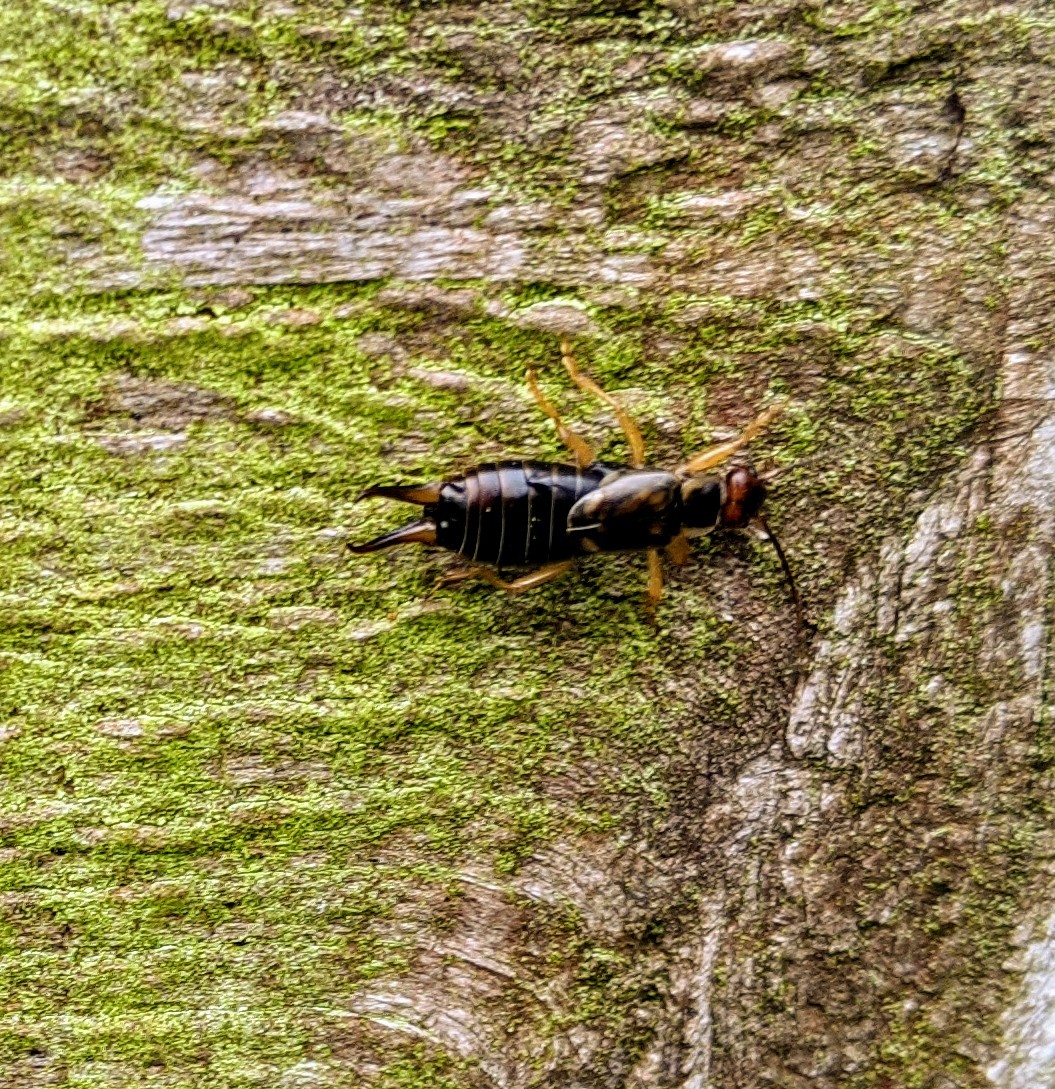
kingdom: Animalia
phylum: Arthropoda
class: Insecta
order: Dermaptera
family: Forficulidae
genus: Forficula
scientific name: Forficula
